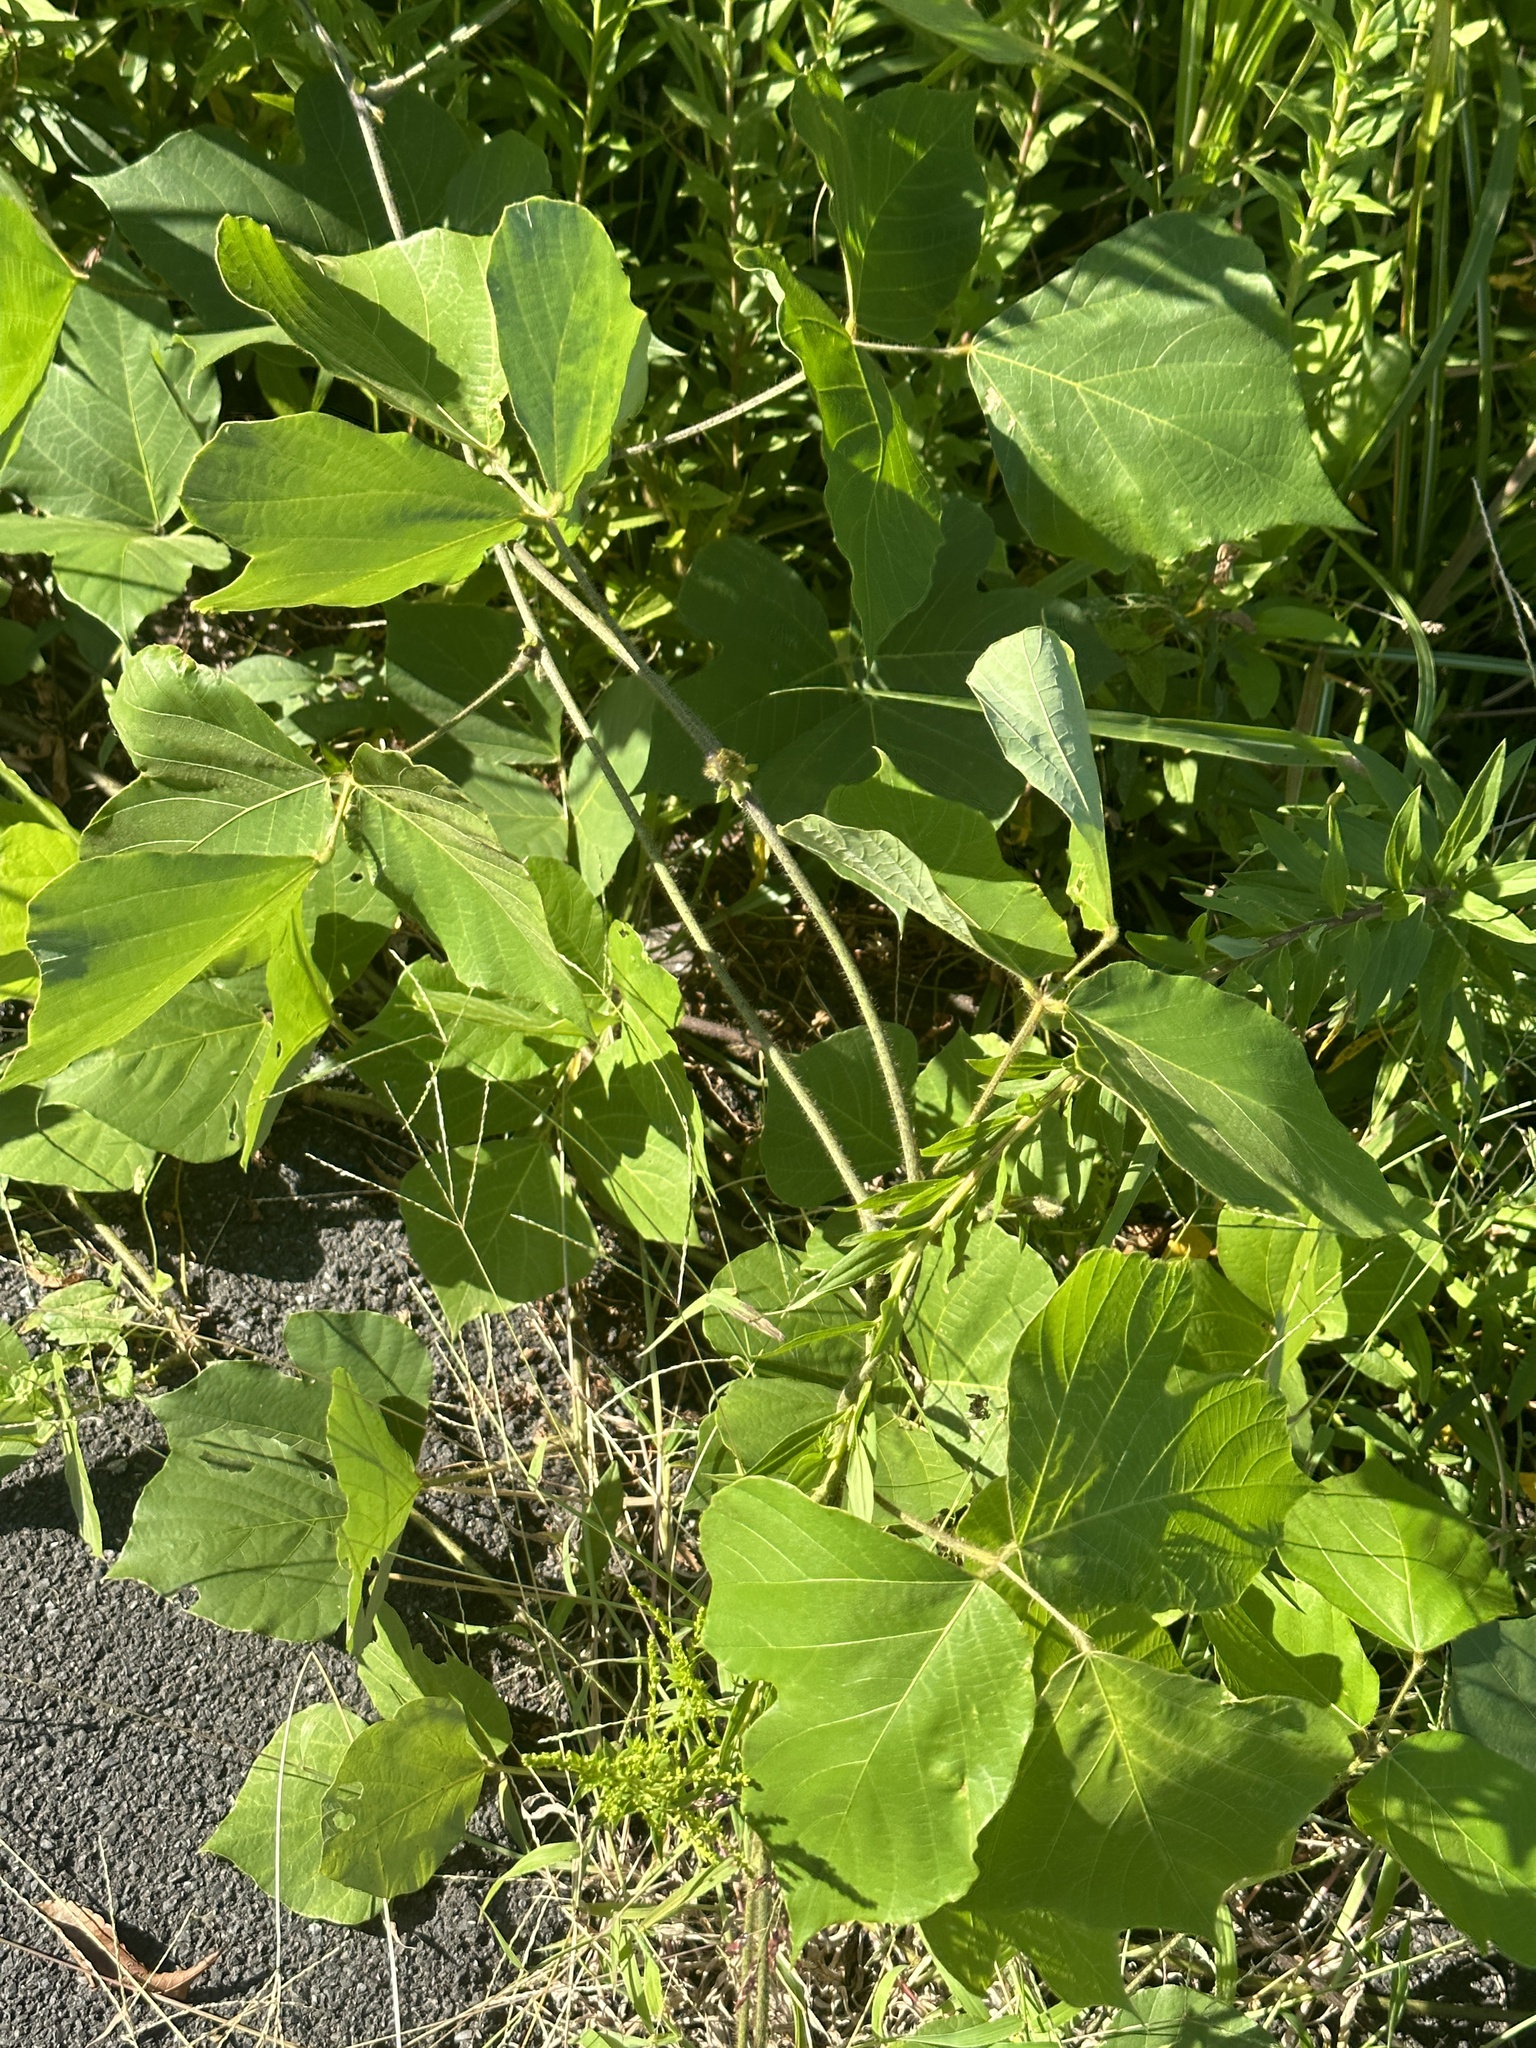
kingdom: Plantae
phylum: Tracheophyta
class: Magnoliopsida
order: Fabales
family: Fabaceae
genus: Pueraria
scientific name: Pueraria montana
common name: Kudzu
